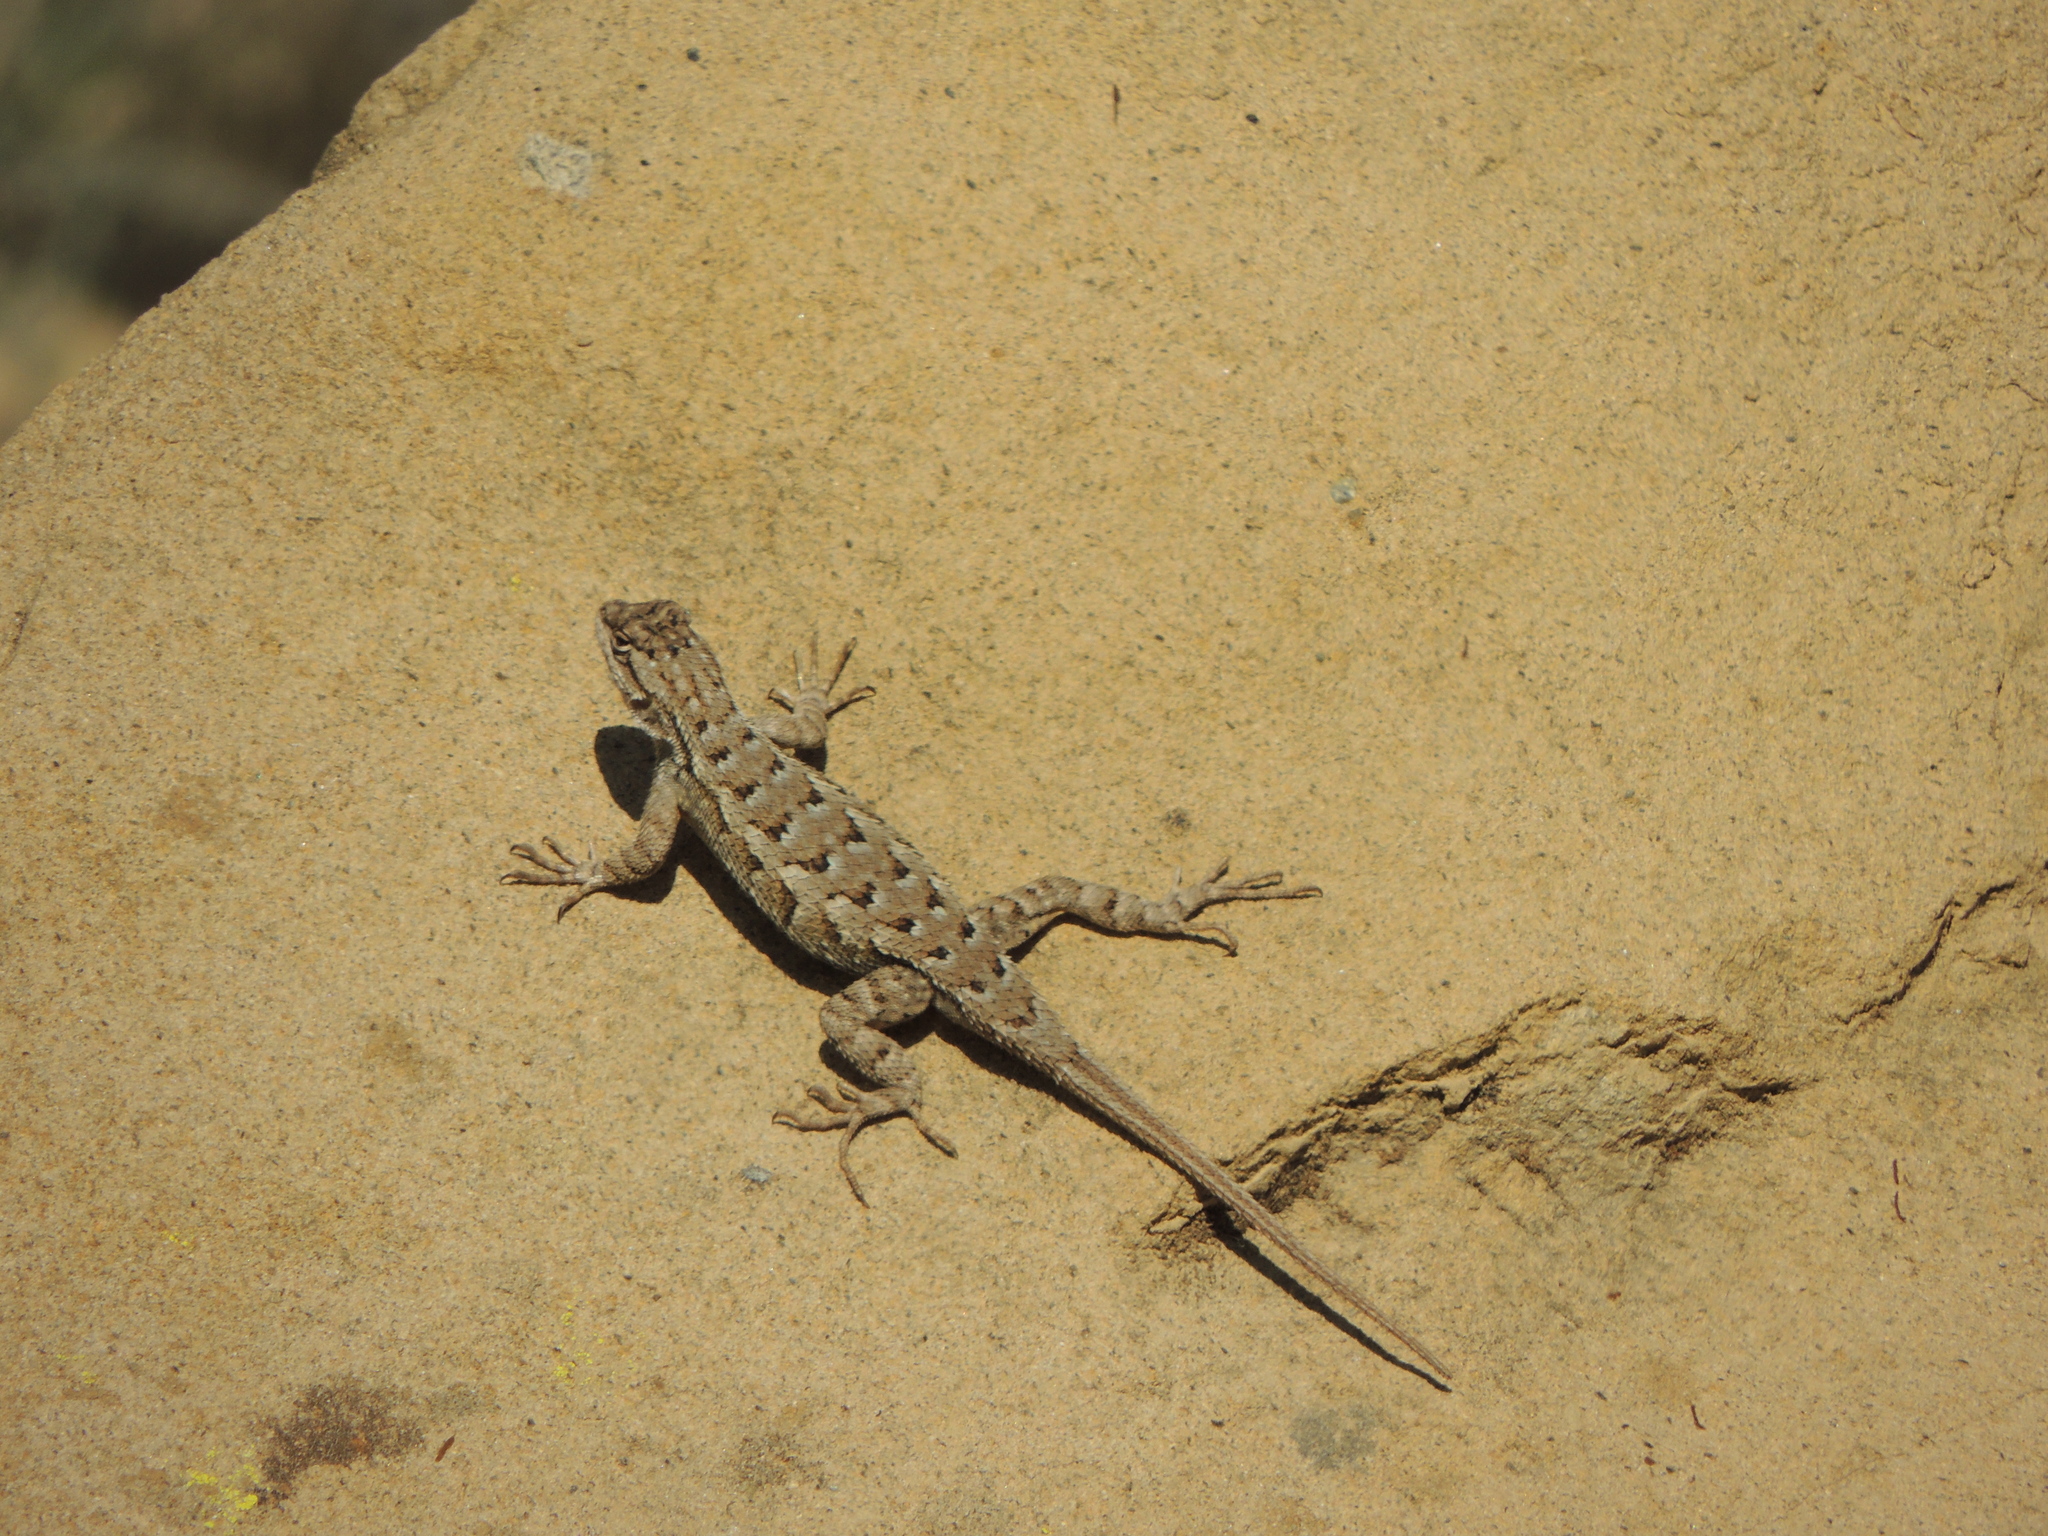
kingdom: Animalia
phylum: Chordata
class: Squamata
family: Phrynosomatidae
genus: Sceloporus
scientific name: Sceloporus occidentalis
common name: Western fence lizard
